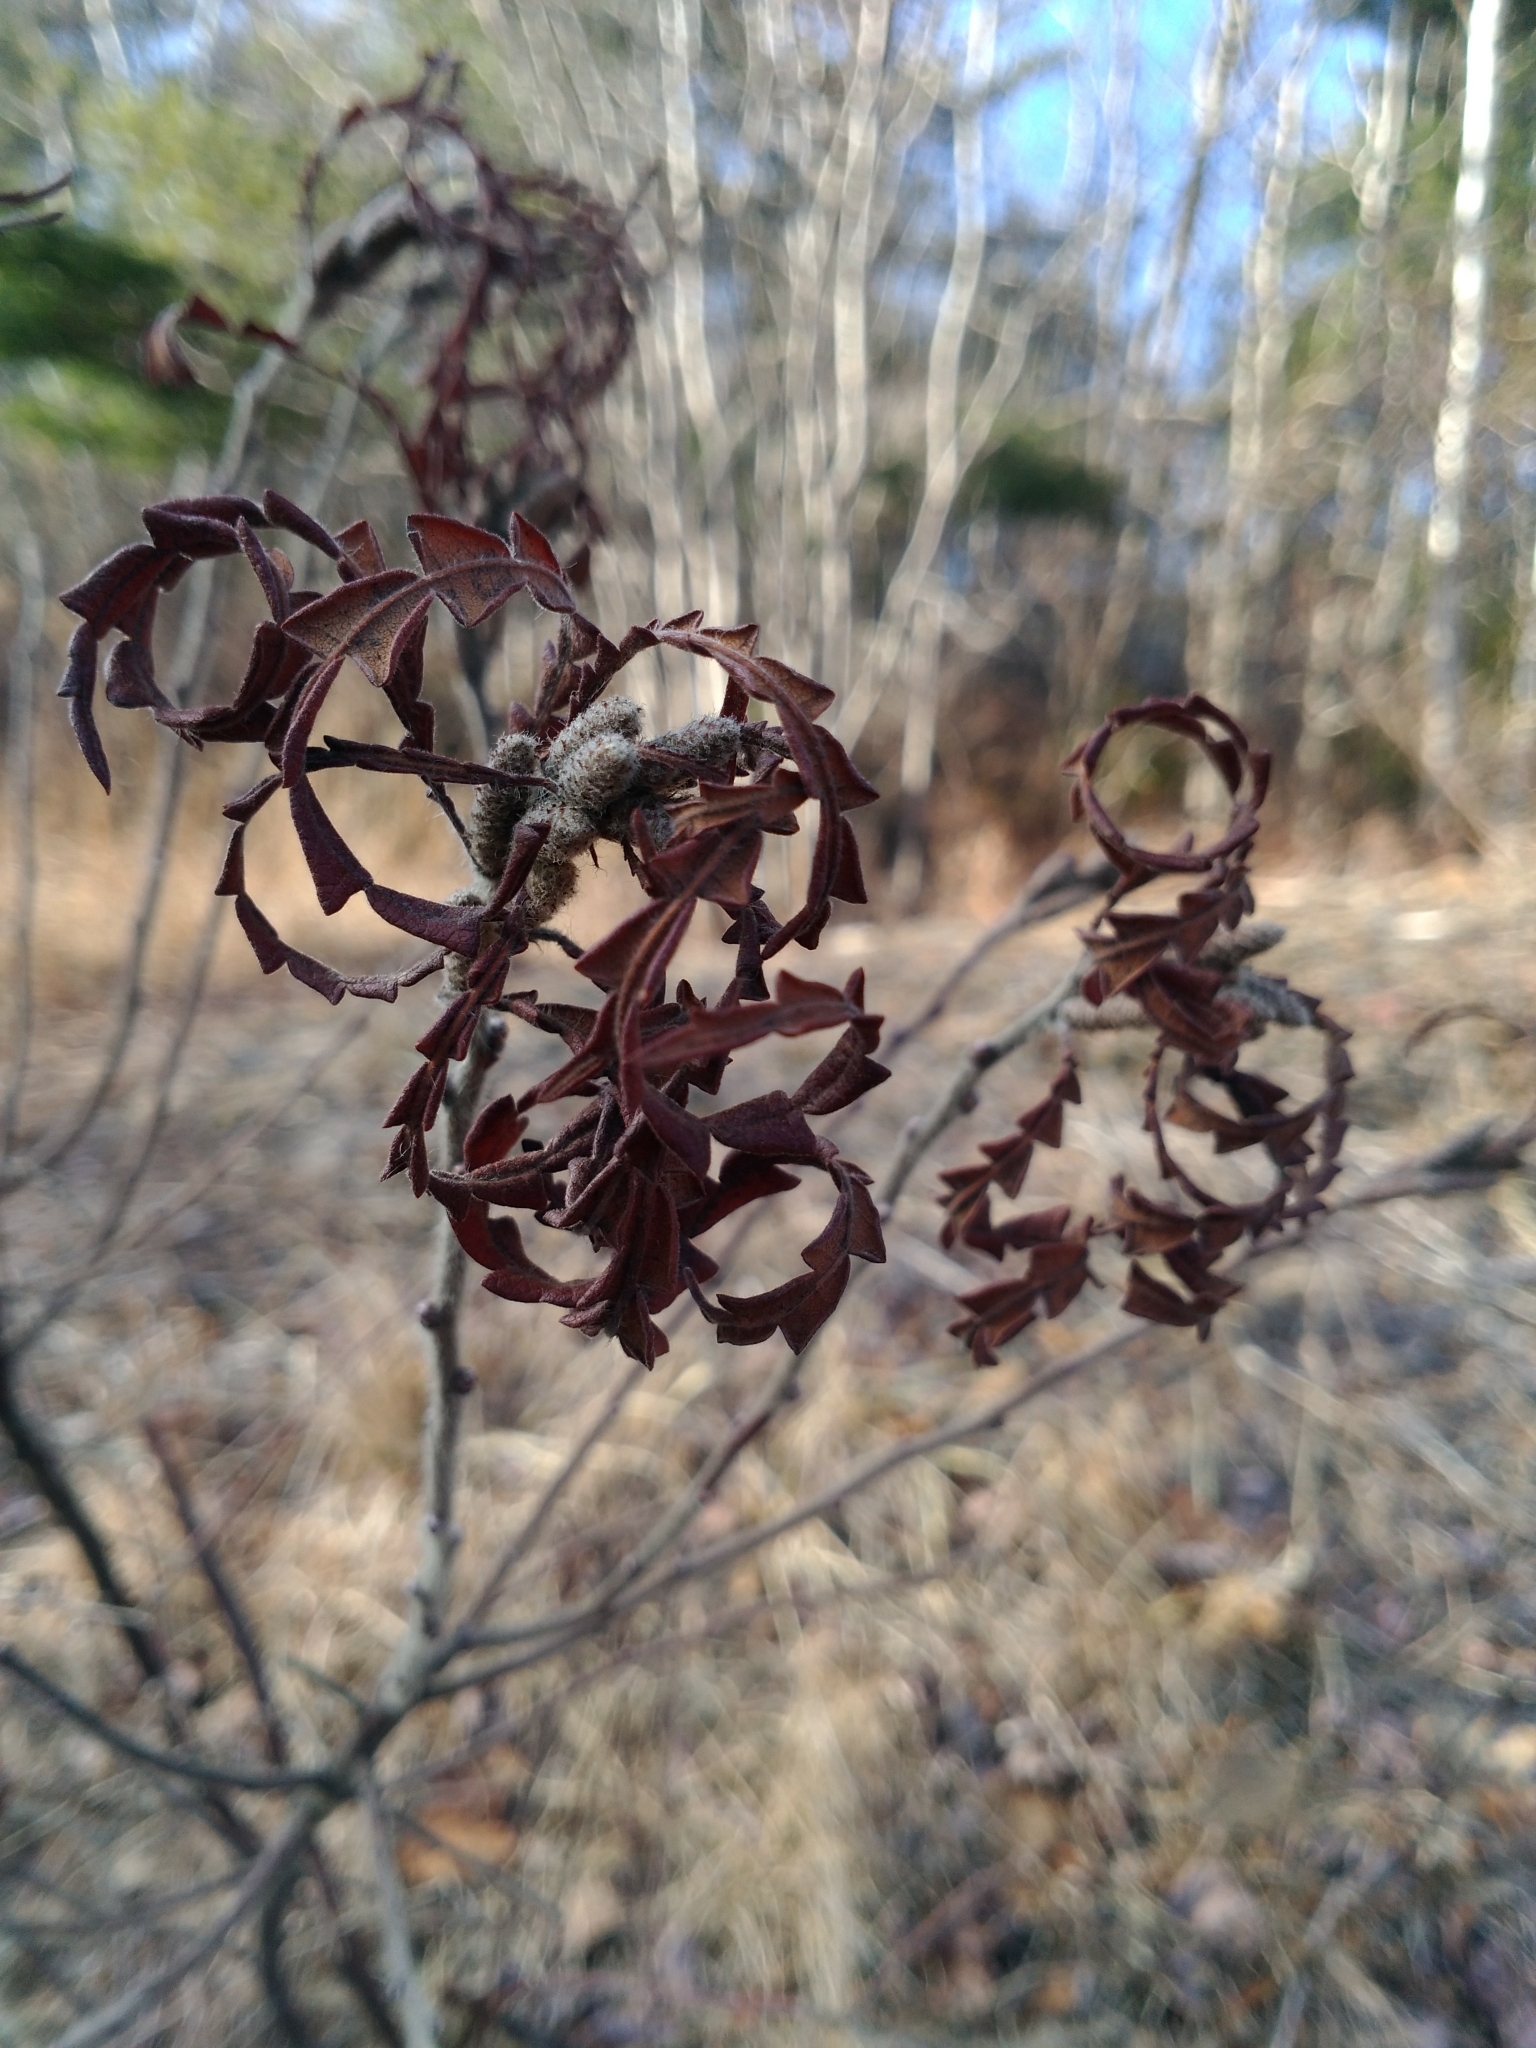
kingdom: Plantae
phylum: Tracheophyta
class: Magnoliopsida
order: Fagales
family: Myricaceae
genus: Comptonia
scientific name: Comptonia peregrina
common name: Sweet-fern
